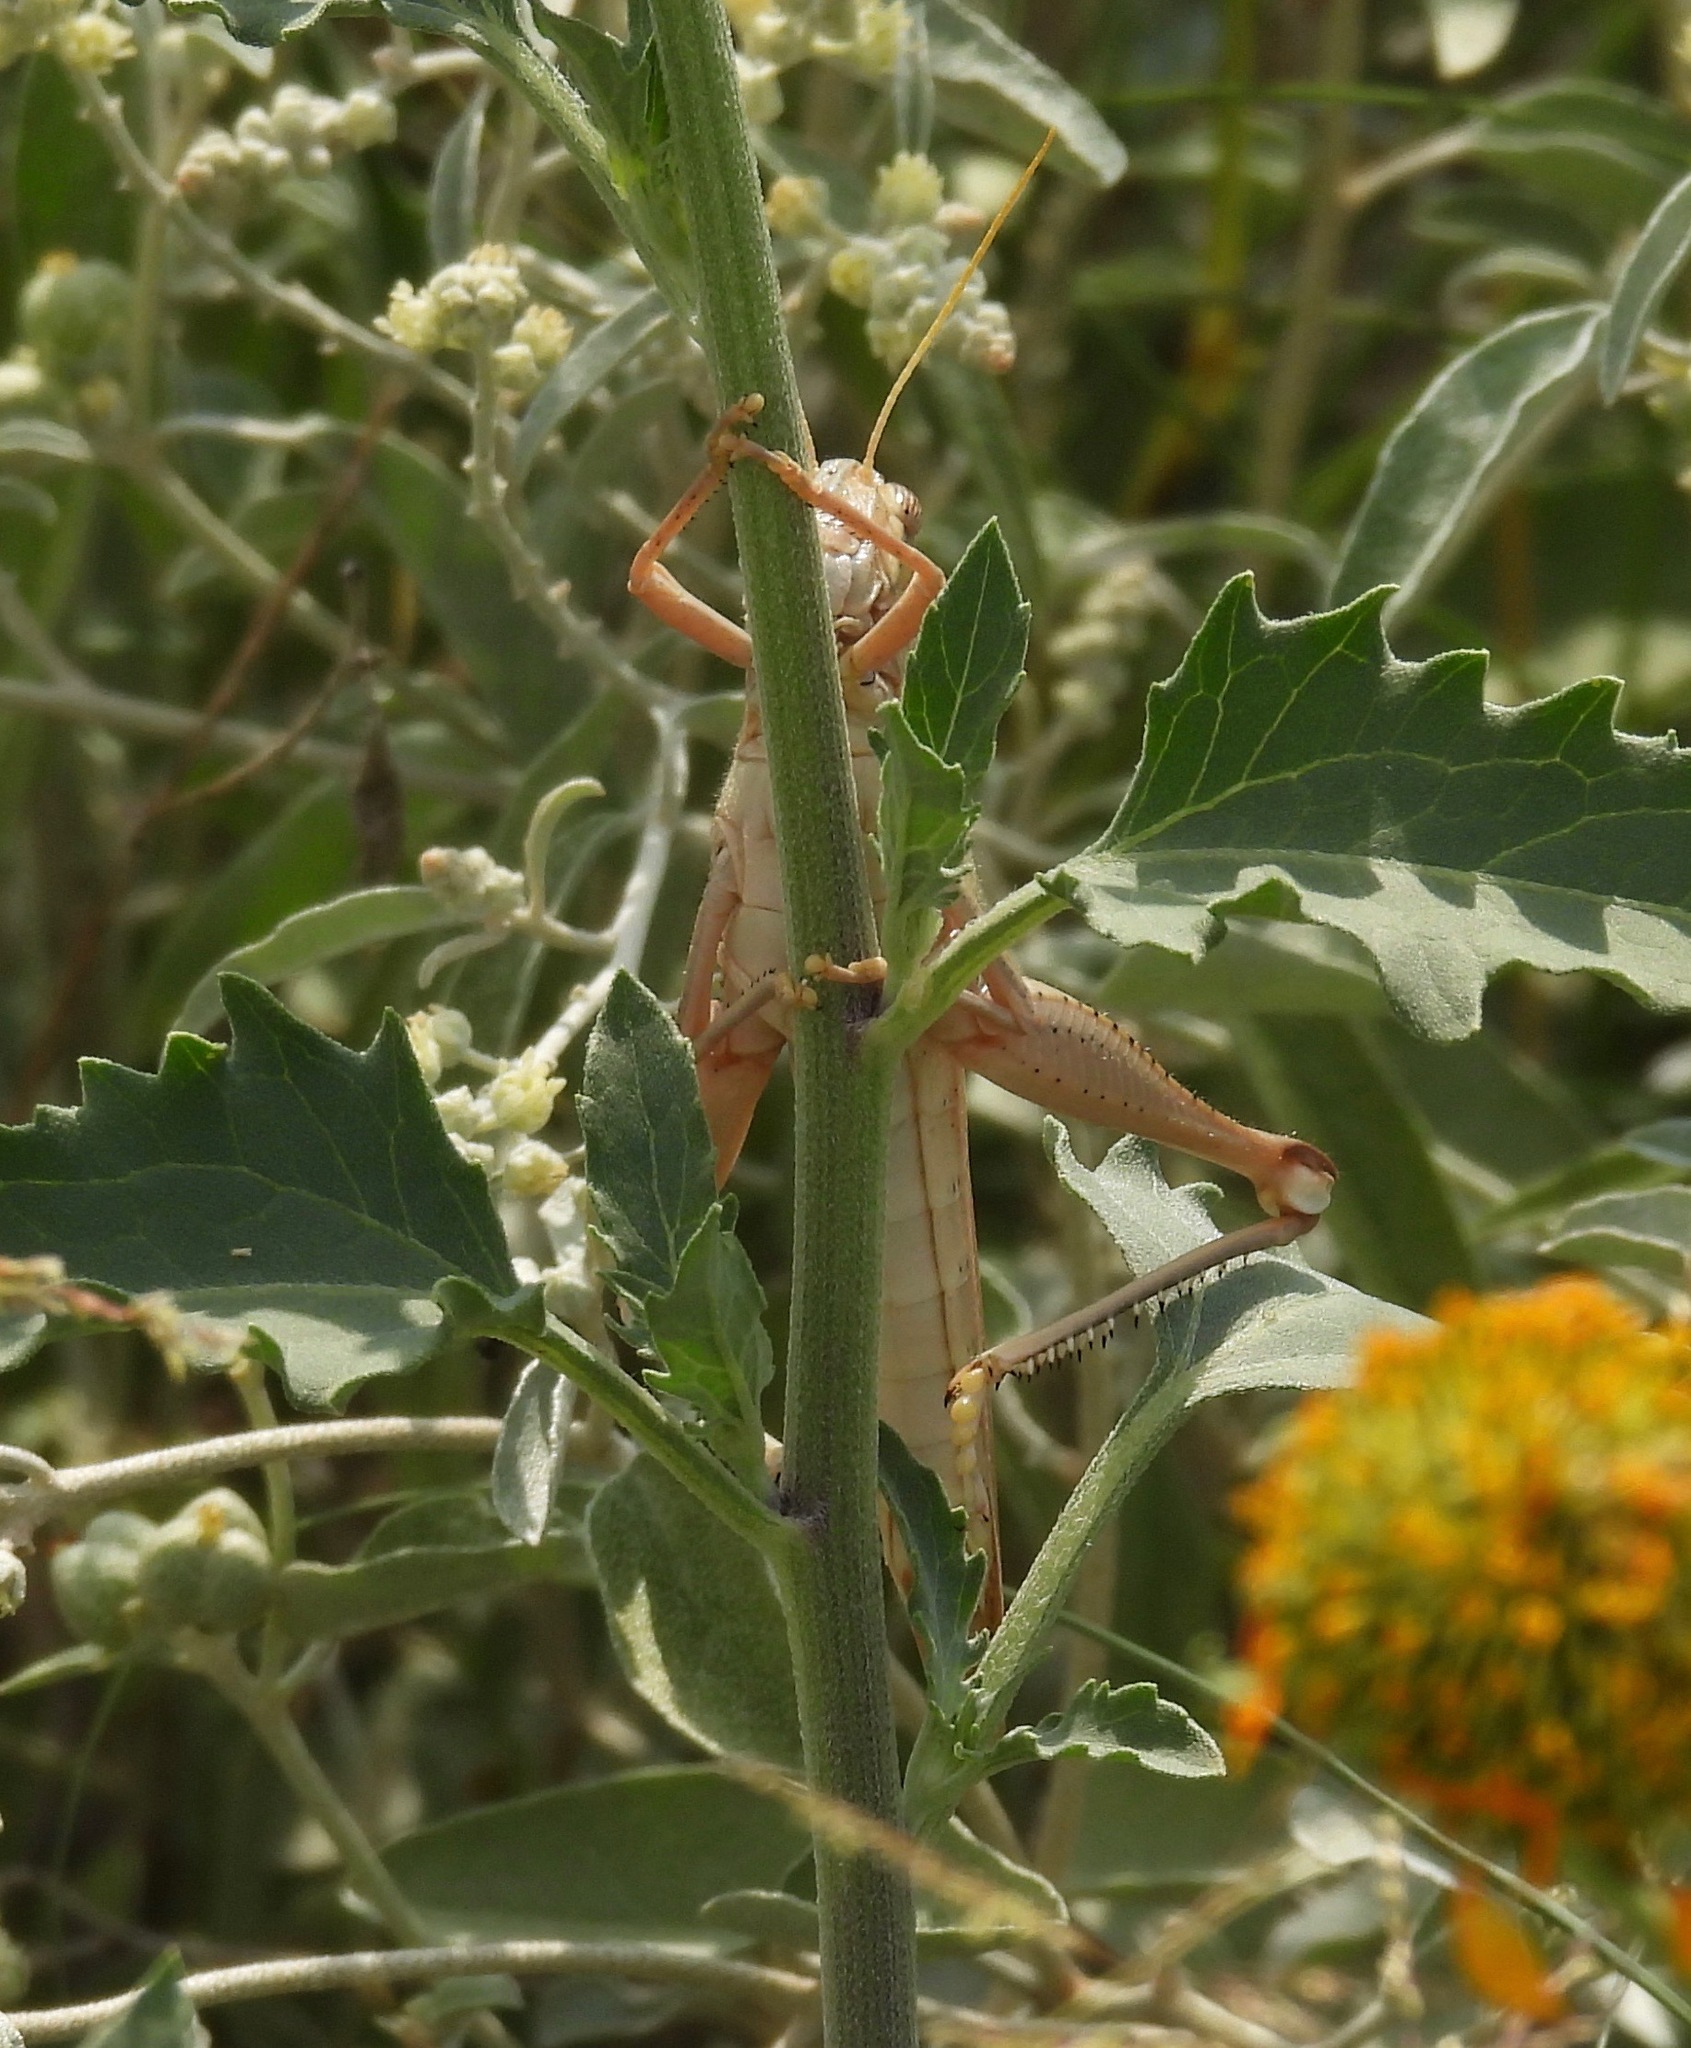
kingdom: Animalia
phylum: Arthropoda
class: Insecta
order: Orthoptera
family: Acrididae
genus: Schistocerca
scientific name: Schistocerca lineata
